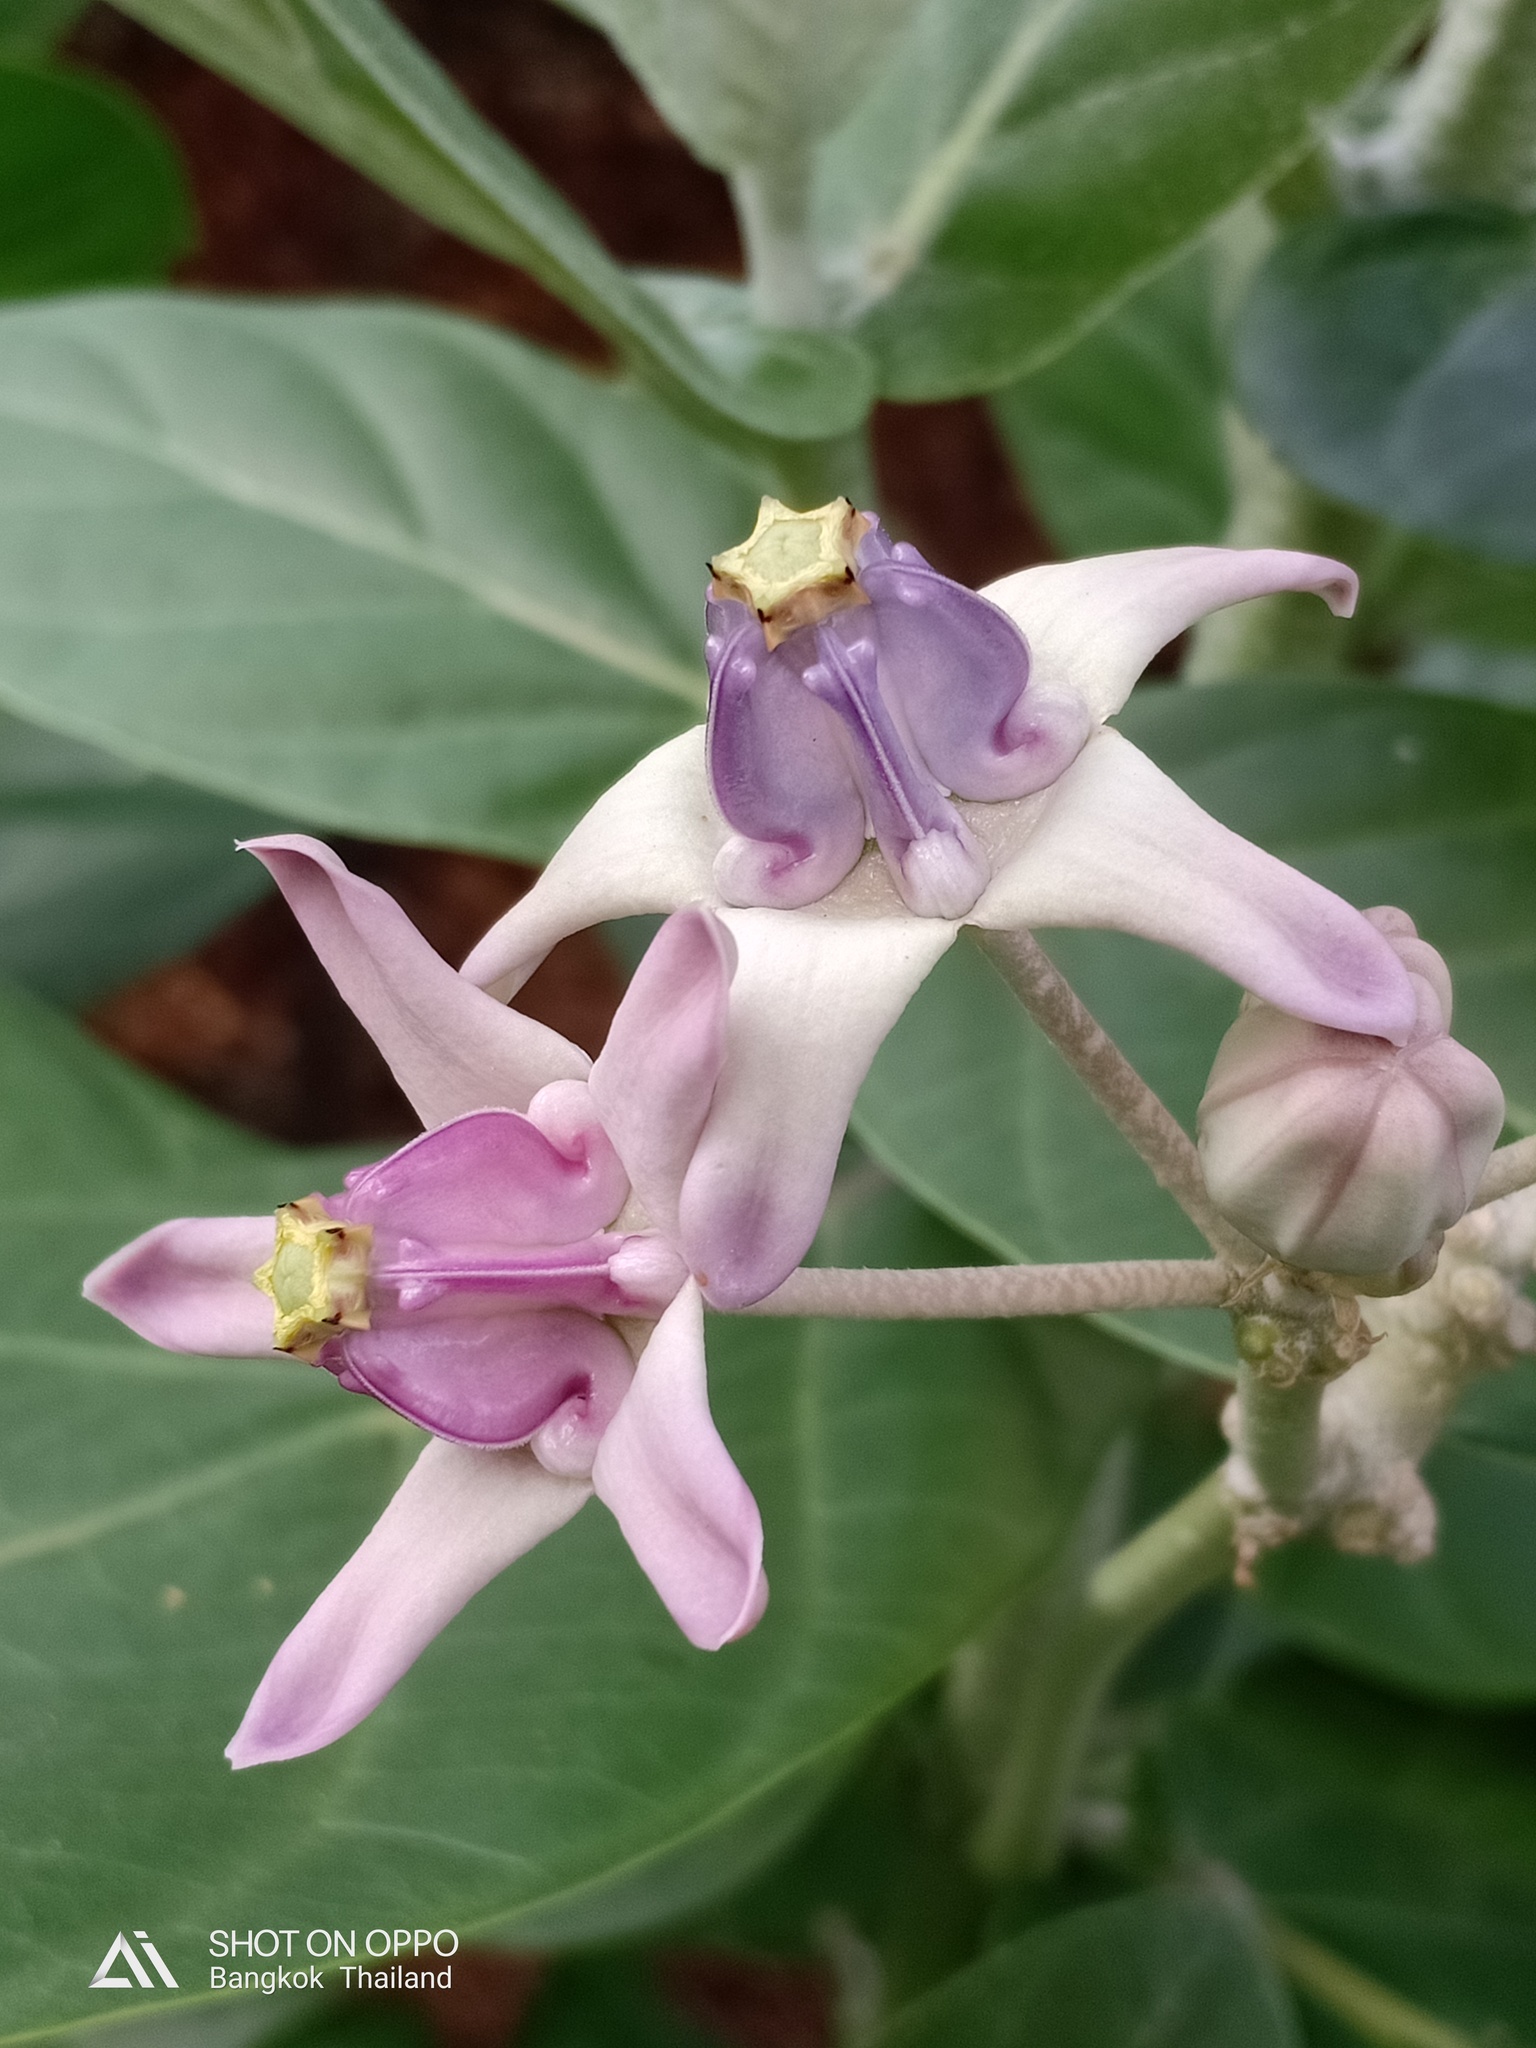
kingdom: Plantae
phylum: Tracheophyta
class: Magnoliopsida
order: Gentianales
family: Apocynaceae
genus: Calotropis
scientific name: Calotropis gigantea
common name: Crown flower
